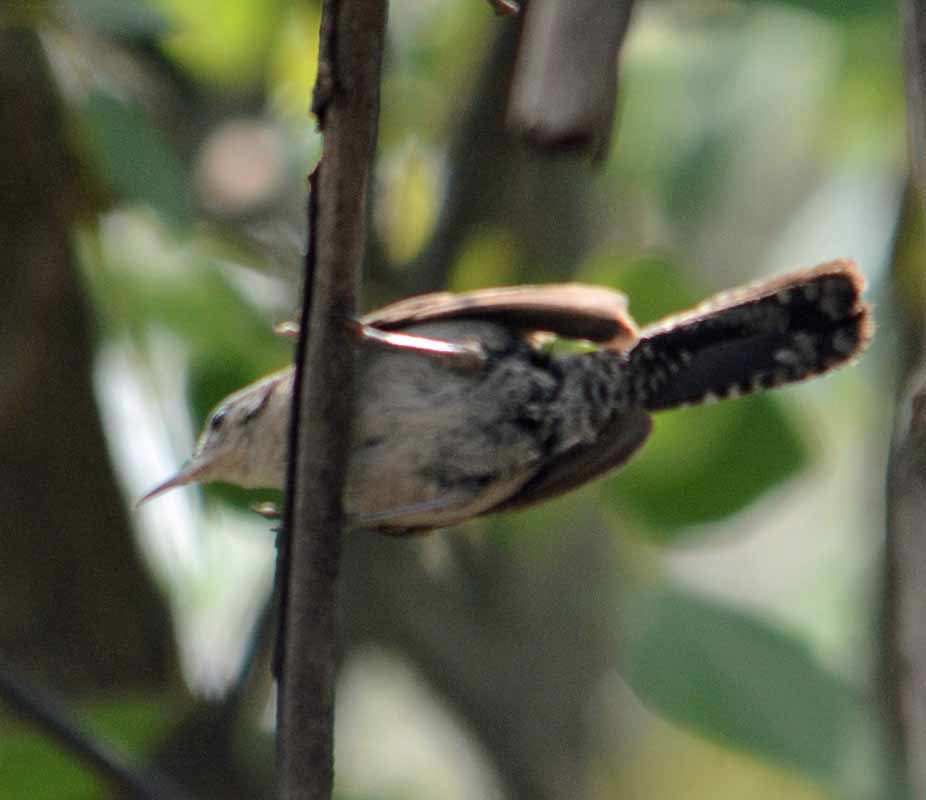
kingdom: Animalia
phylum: Chordata
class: Aves
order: Passeriformes
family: Troglodytidae
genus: Thryomanes
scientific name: Thryomanes bewickii
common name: Bewick's wren
